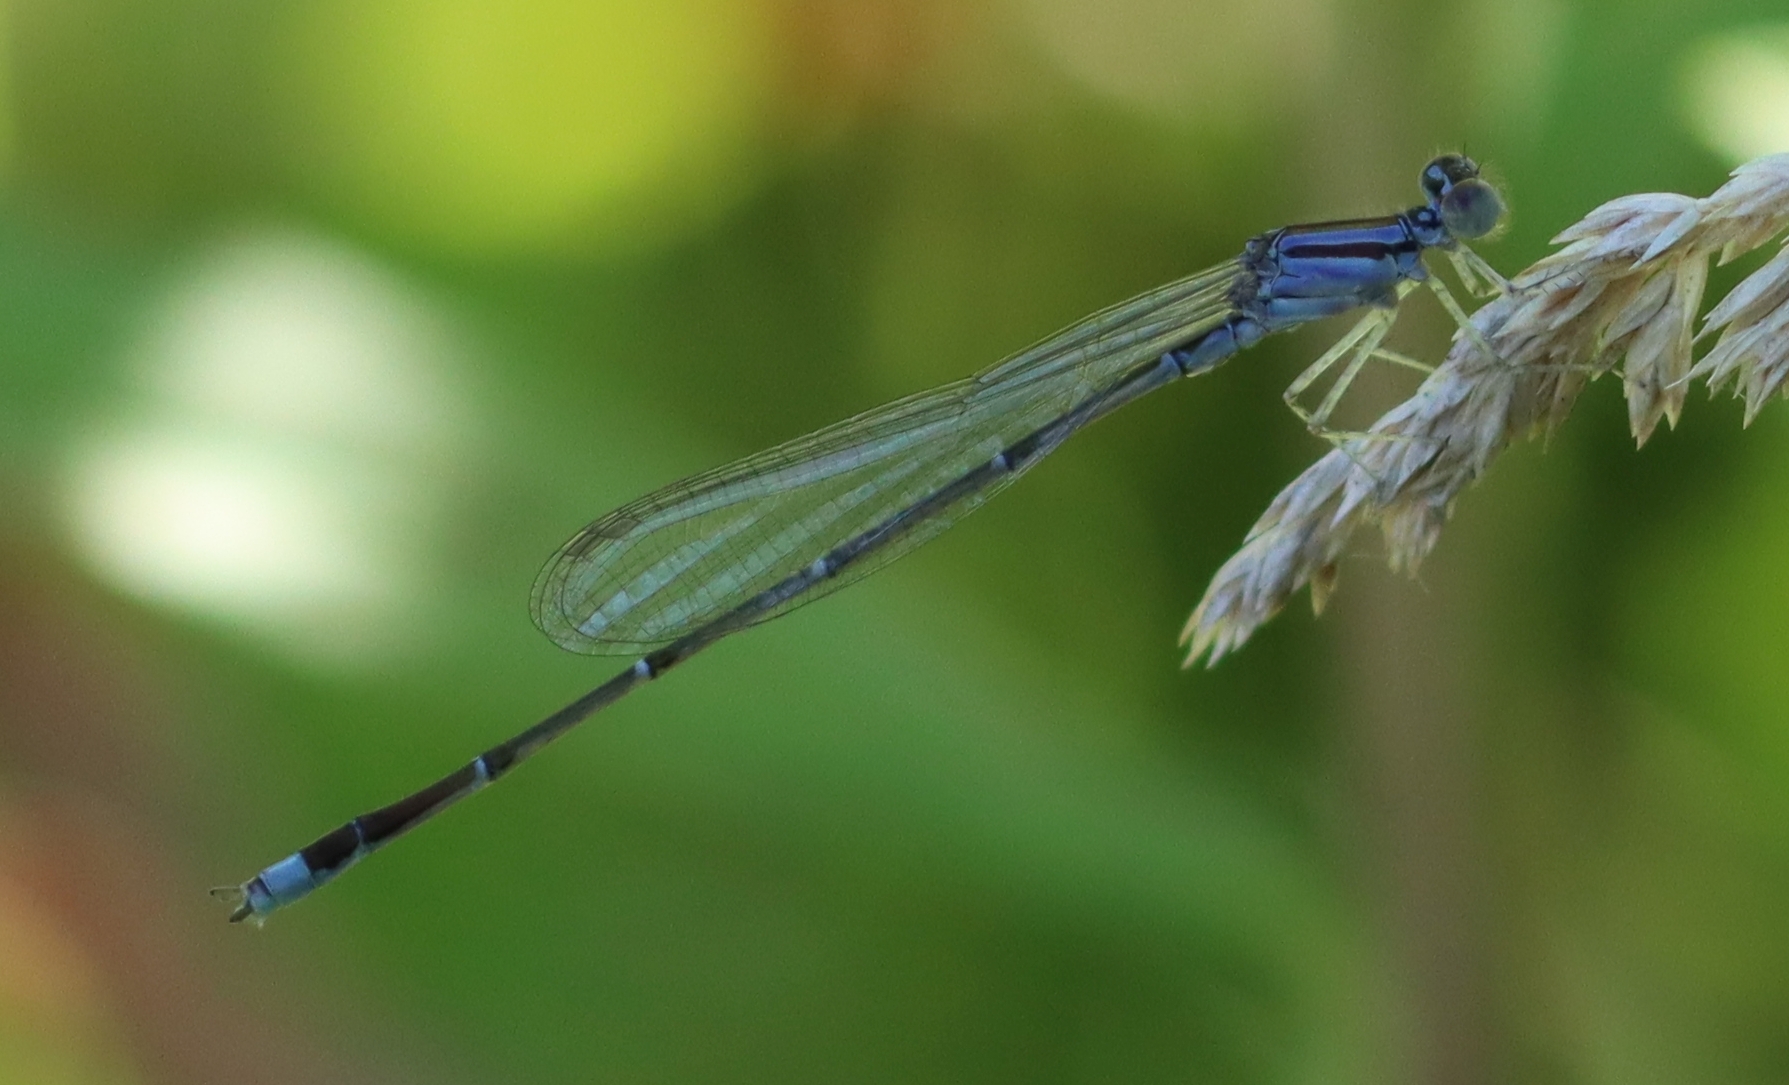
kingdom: Animalia
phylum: Arthropoda
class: Insecta
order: Odonata
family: Coenagrionidae
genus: Enallagma
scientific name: Enallagma signatum
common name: Orange bluet
